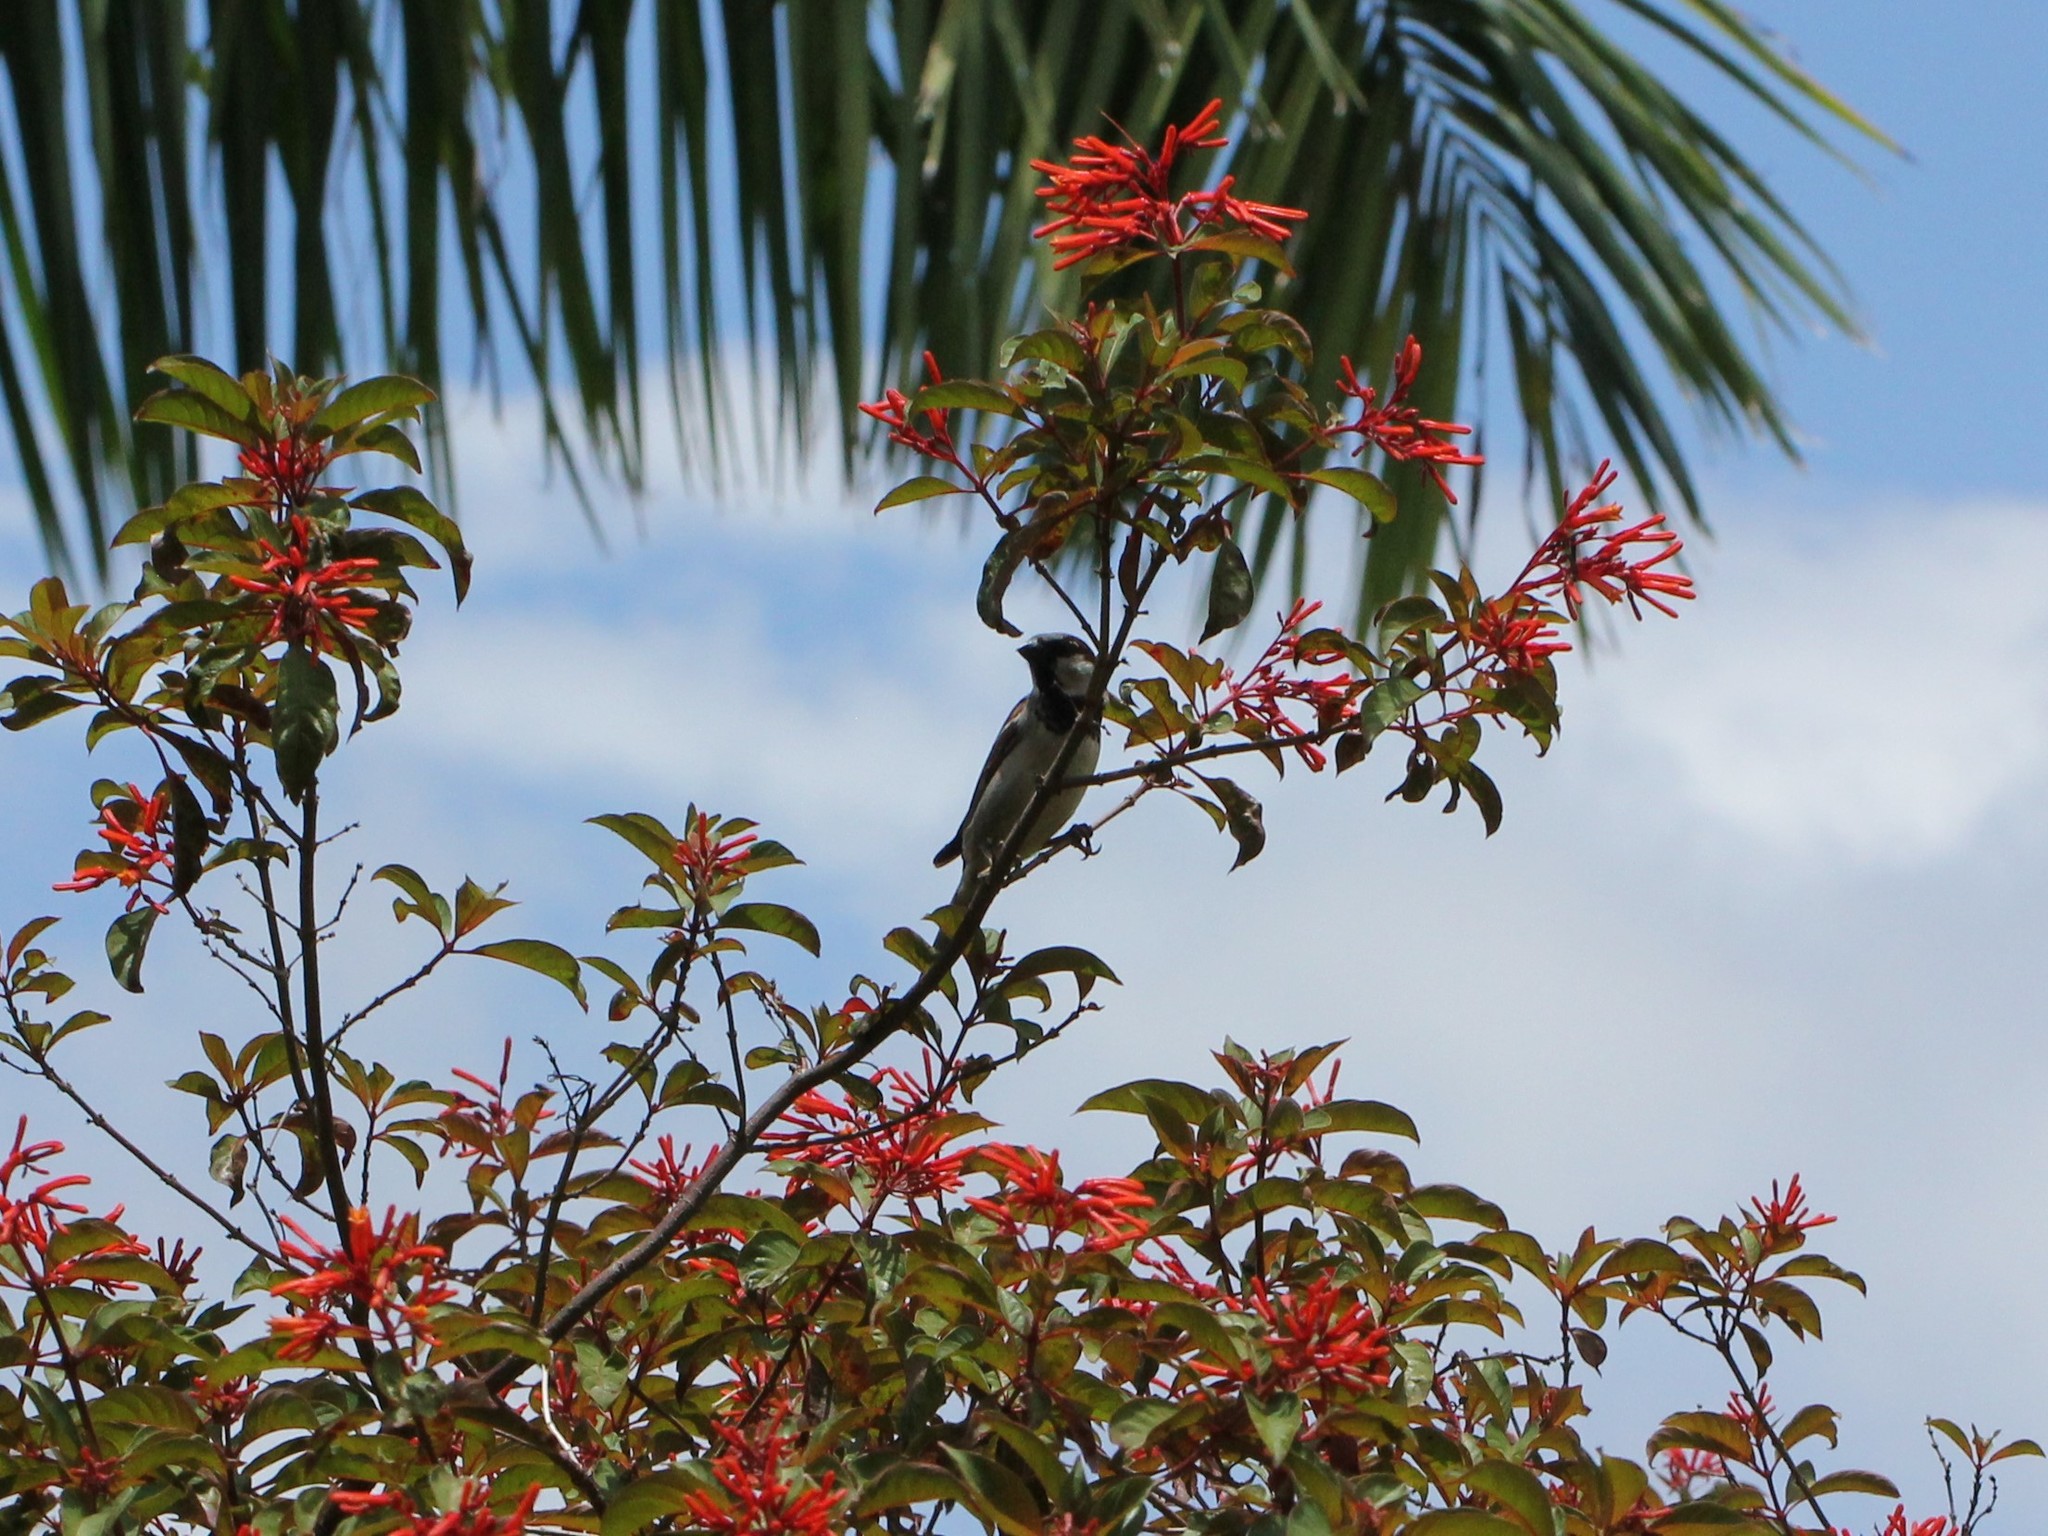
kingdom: Animalia
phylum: Chordata
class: Aves
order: Passeriformes
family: Passeridae
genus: Passer
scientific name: Passer domesticus
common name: House sparrow
